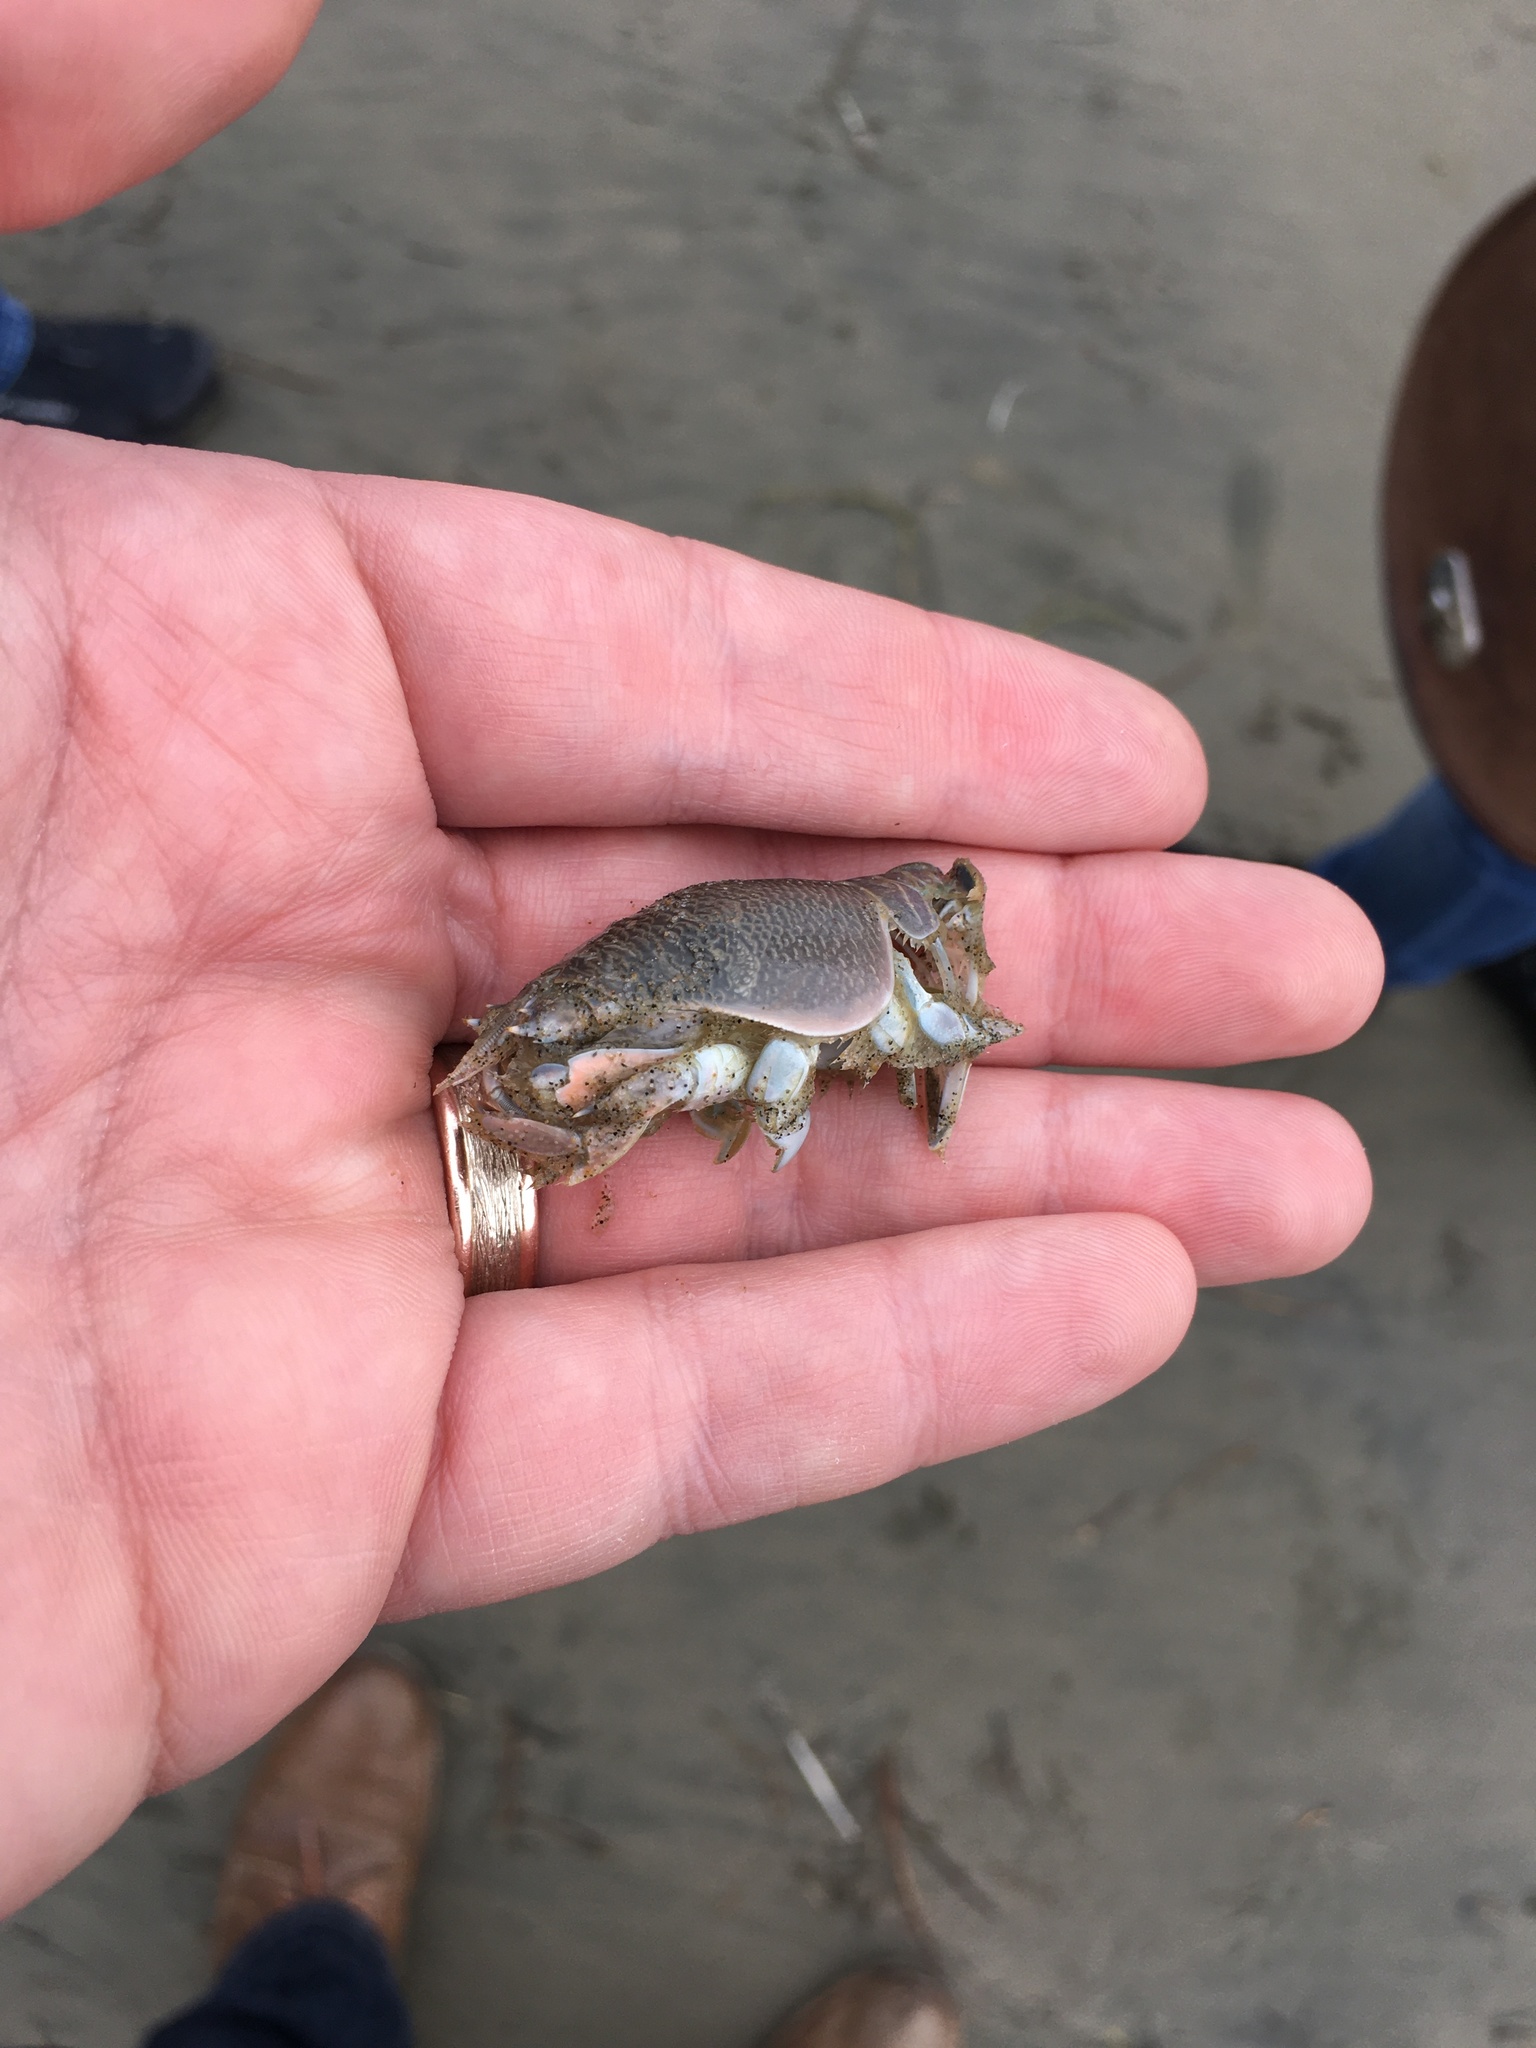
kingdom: Animalia
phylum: Arthropoda
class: Malacostraca
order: Decapoda
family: Hippidae
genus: Emerita
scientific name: Emerita analoga
